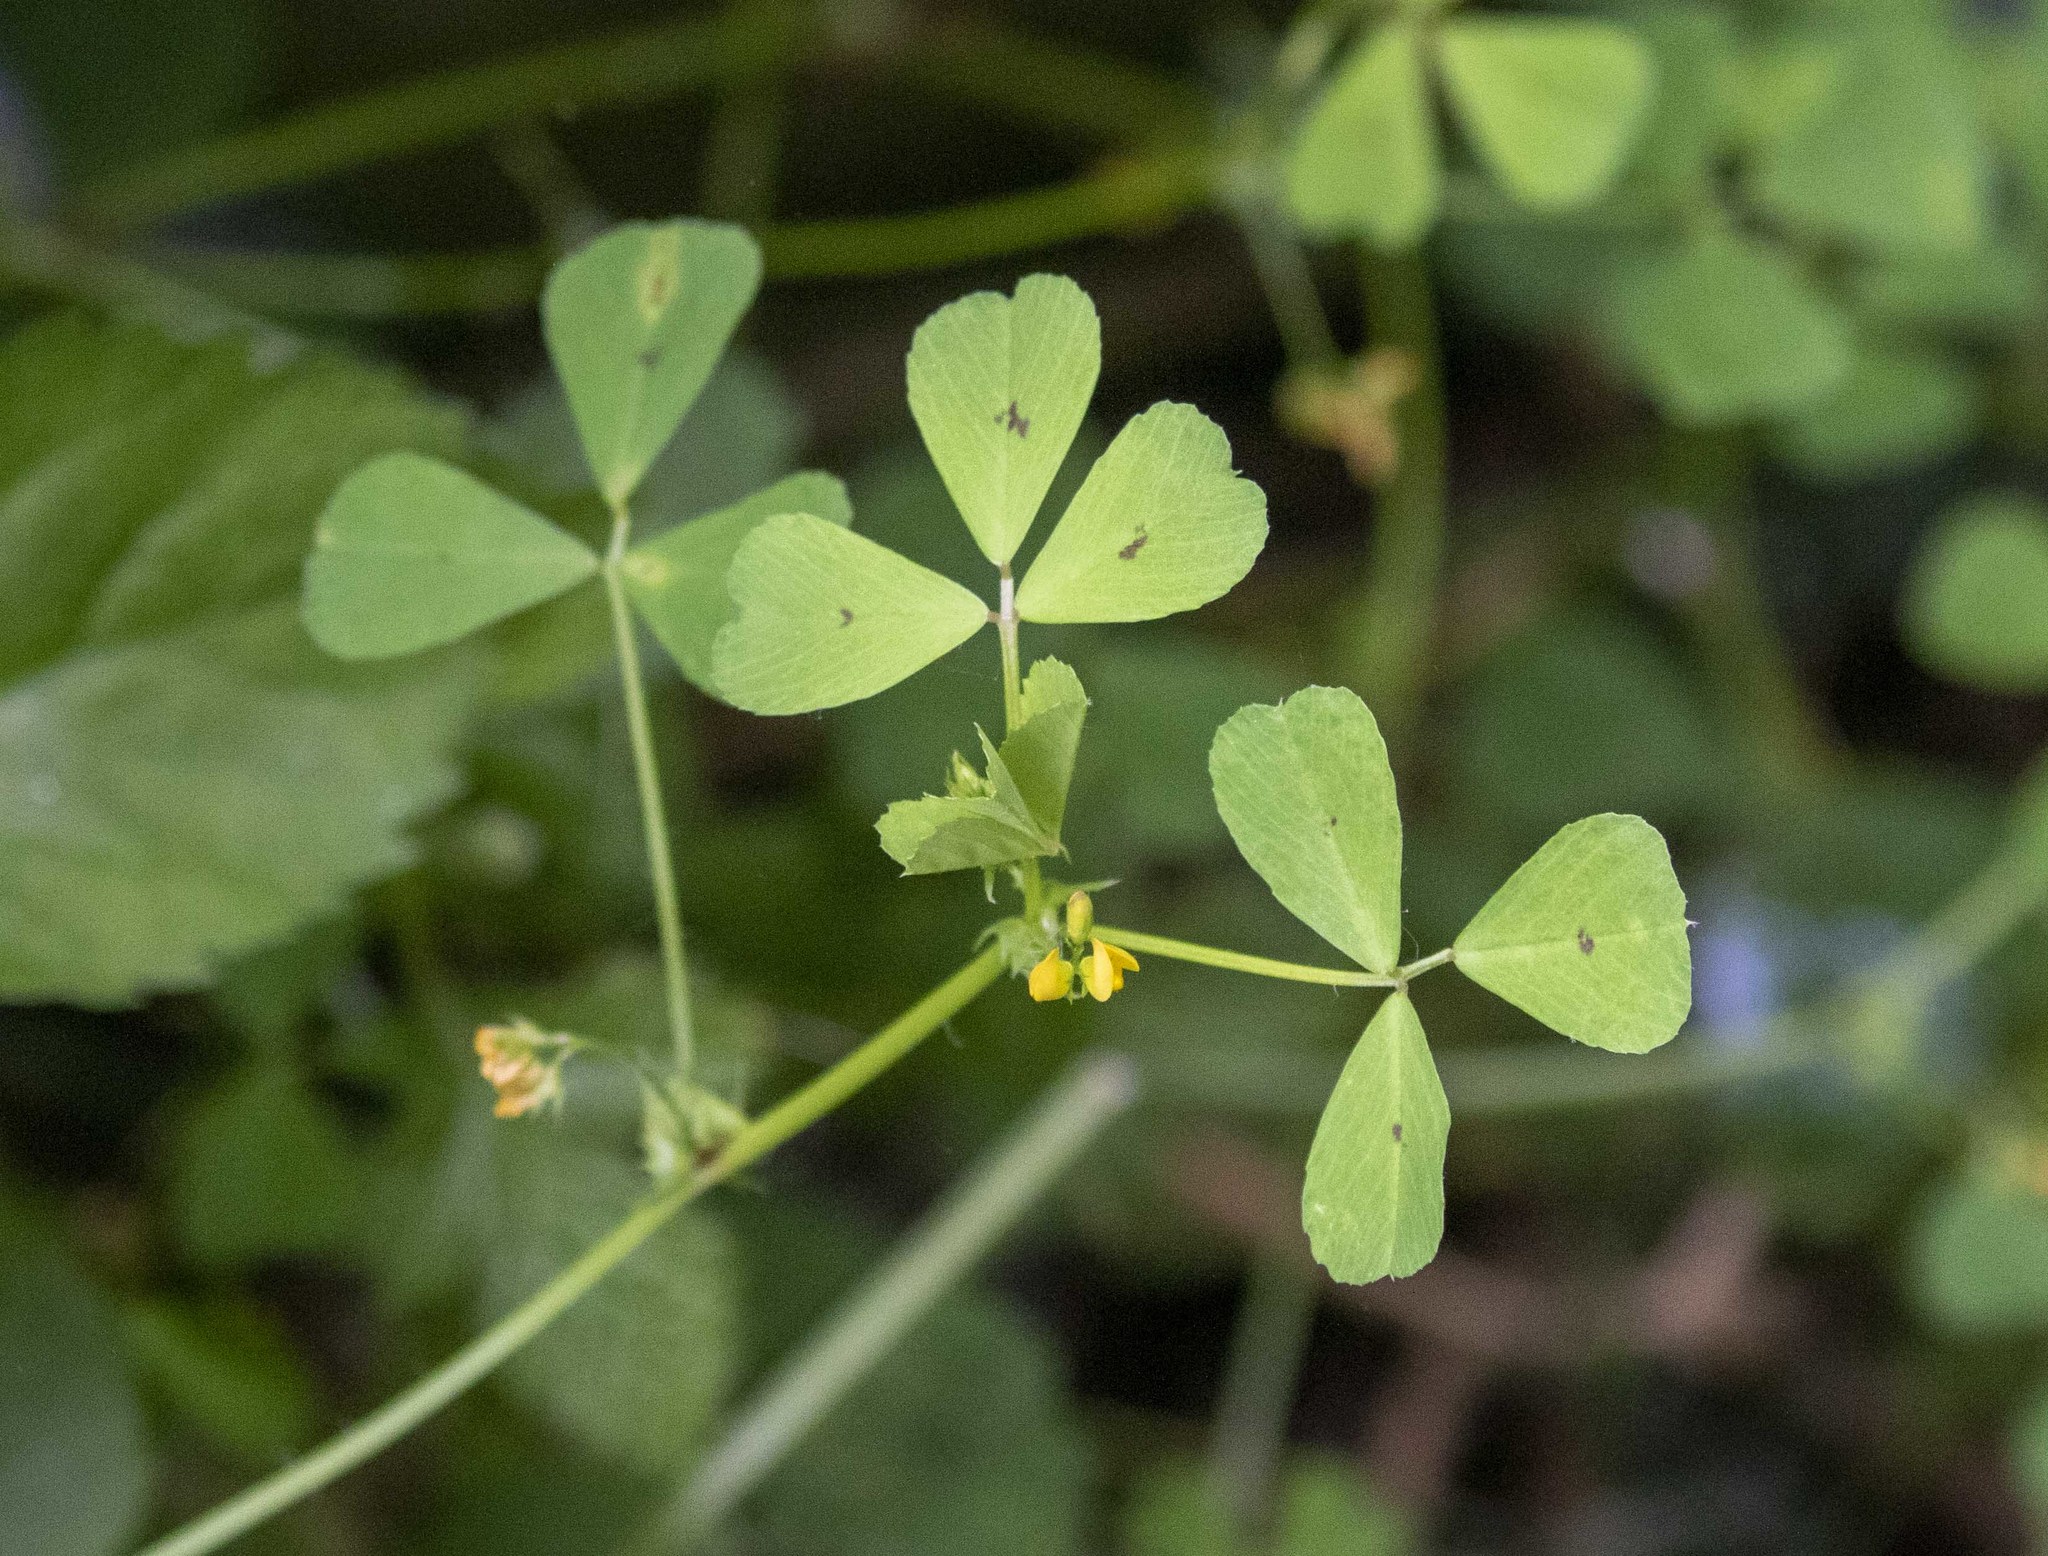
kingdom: Plantae
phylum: Tracheophyta
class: Magnoliopsida
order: Fabales
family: Fabaceae
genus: Medicago
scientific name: Medicago arabica
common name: Spotted medick
